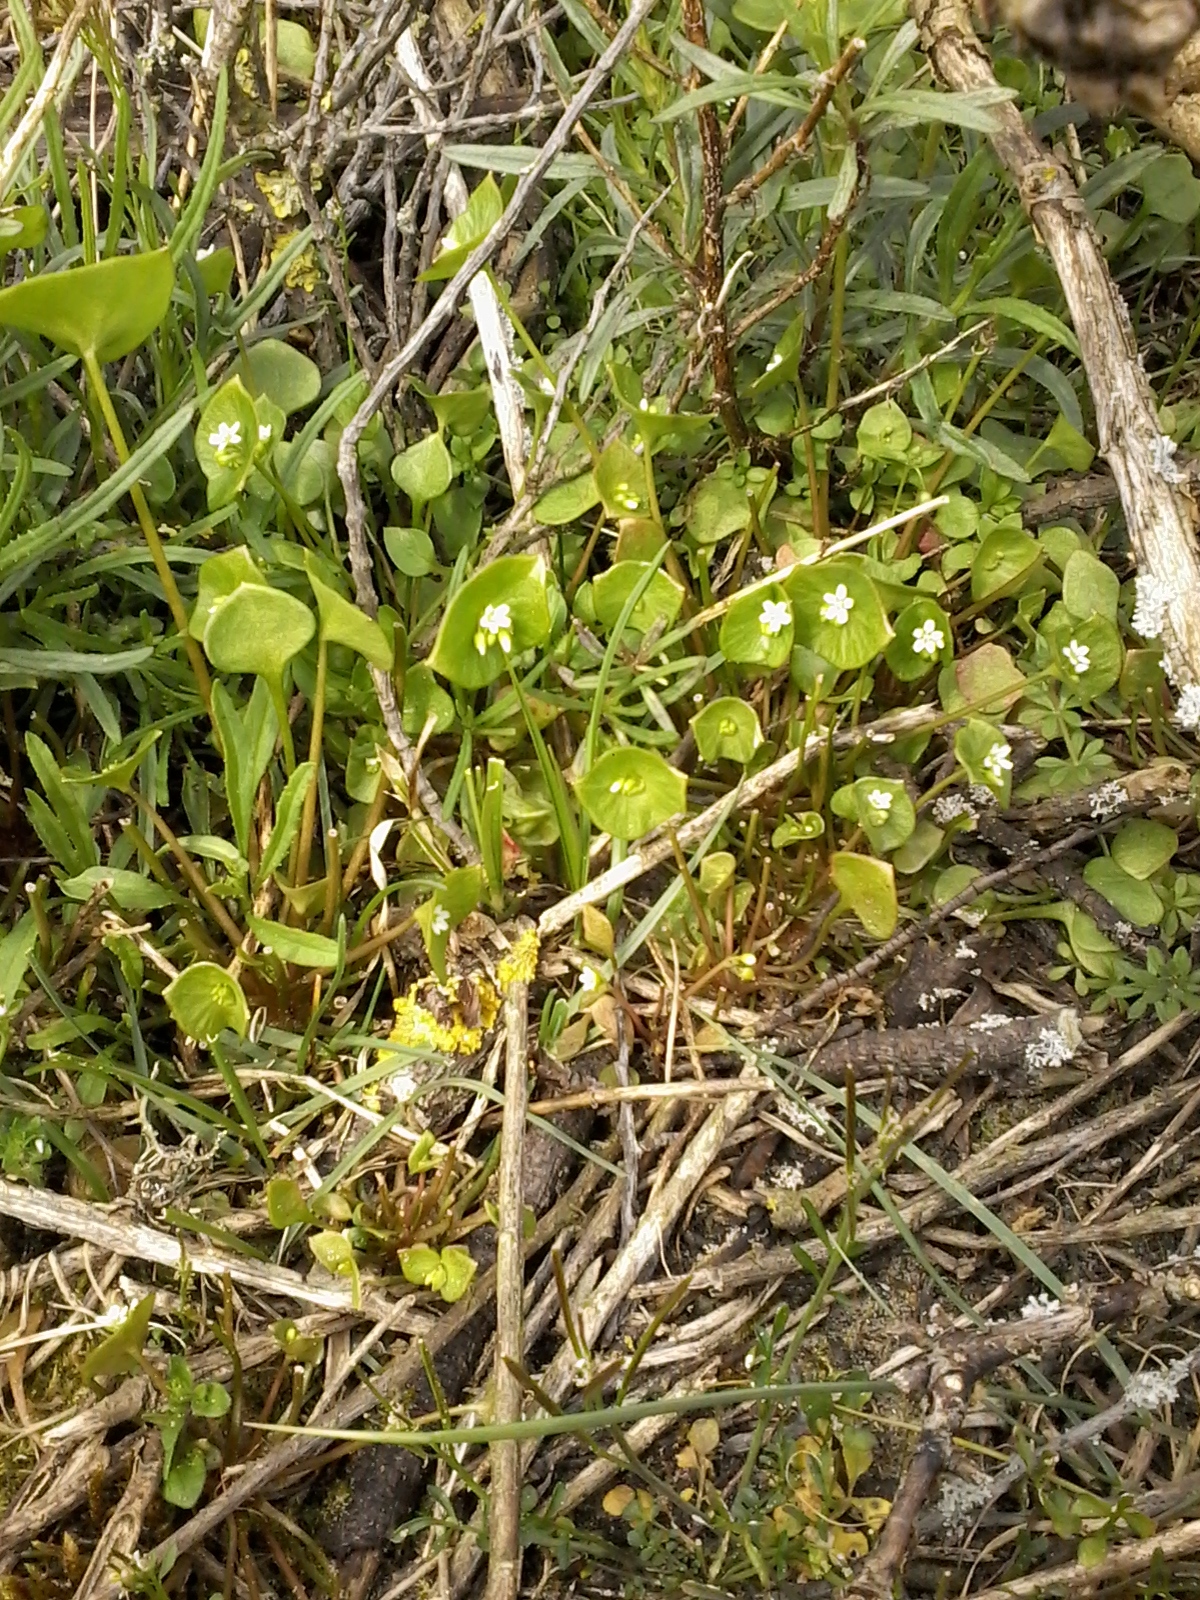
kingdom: Plantae
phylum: Tracheophyta
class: Magnoliopsida
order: Caryophyllales
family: Montiaceae
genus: Claytonia
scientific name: Claytonia perfoliata
